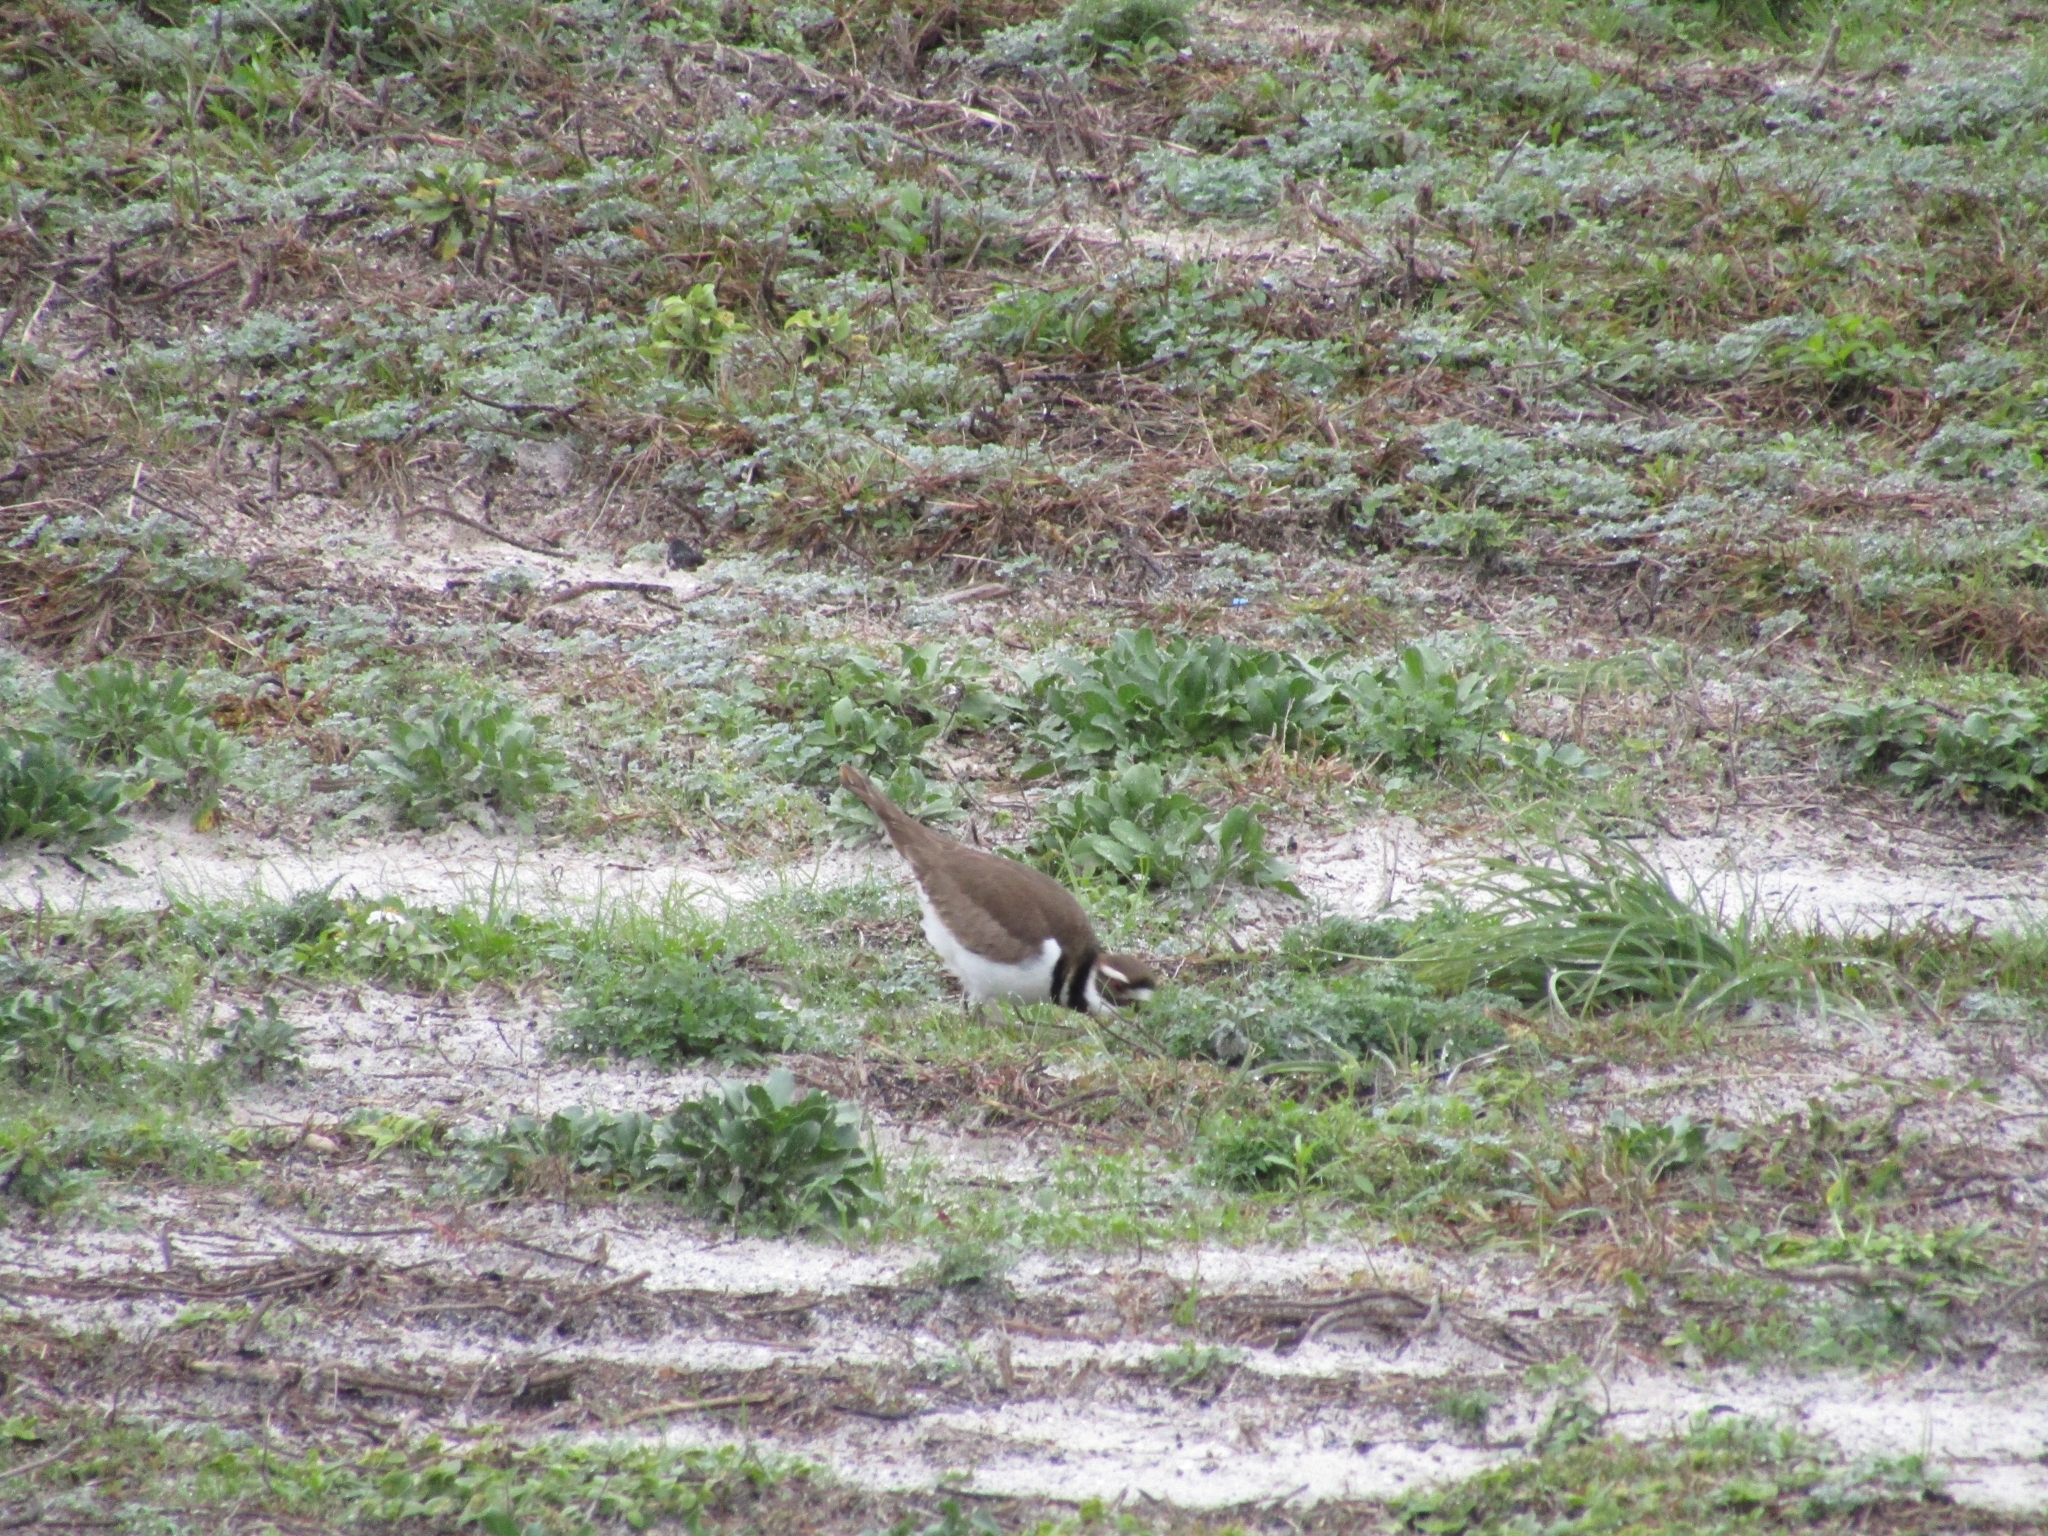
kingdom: Animalia
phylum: Chordata
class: Aves
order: Charadriiformes
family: Charadriidae
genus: Charadrius
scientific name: Charadrius vociferus
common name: Killdeer
